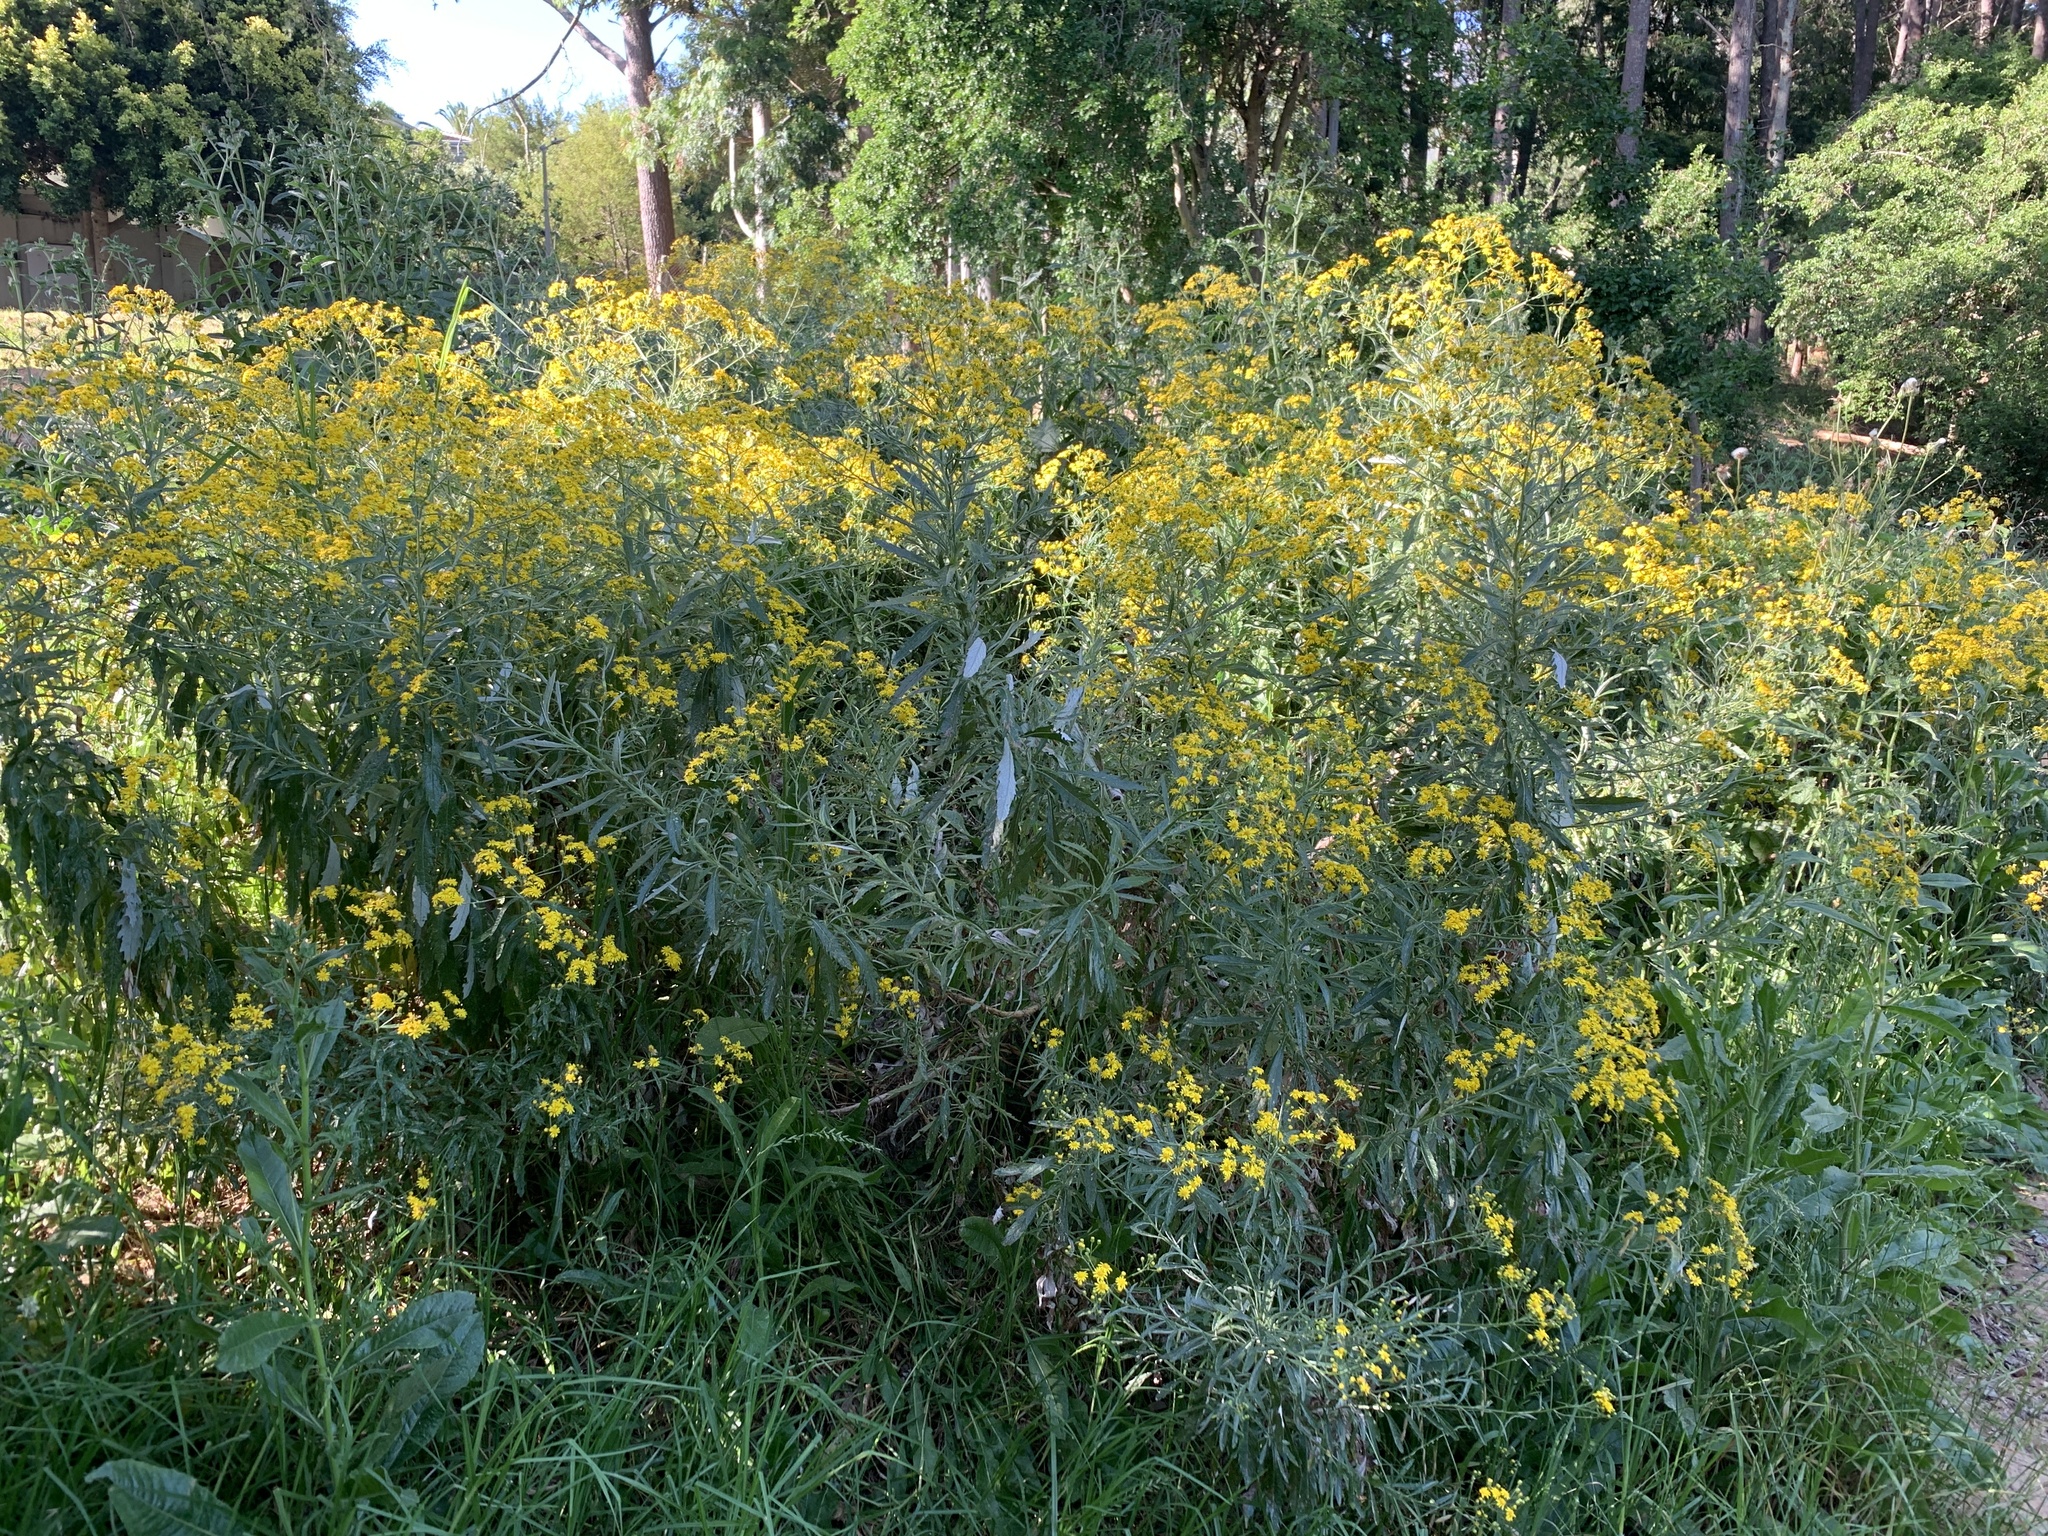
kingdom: Plantae
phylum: Tracheophyta
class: Magnoliopsida
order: Asterales
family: Asteraceae
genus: Senecio
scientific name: Senecio pterophorus
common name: Shoddy ragwort
